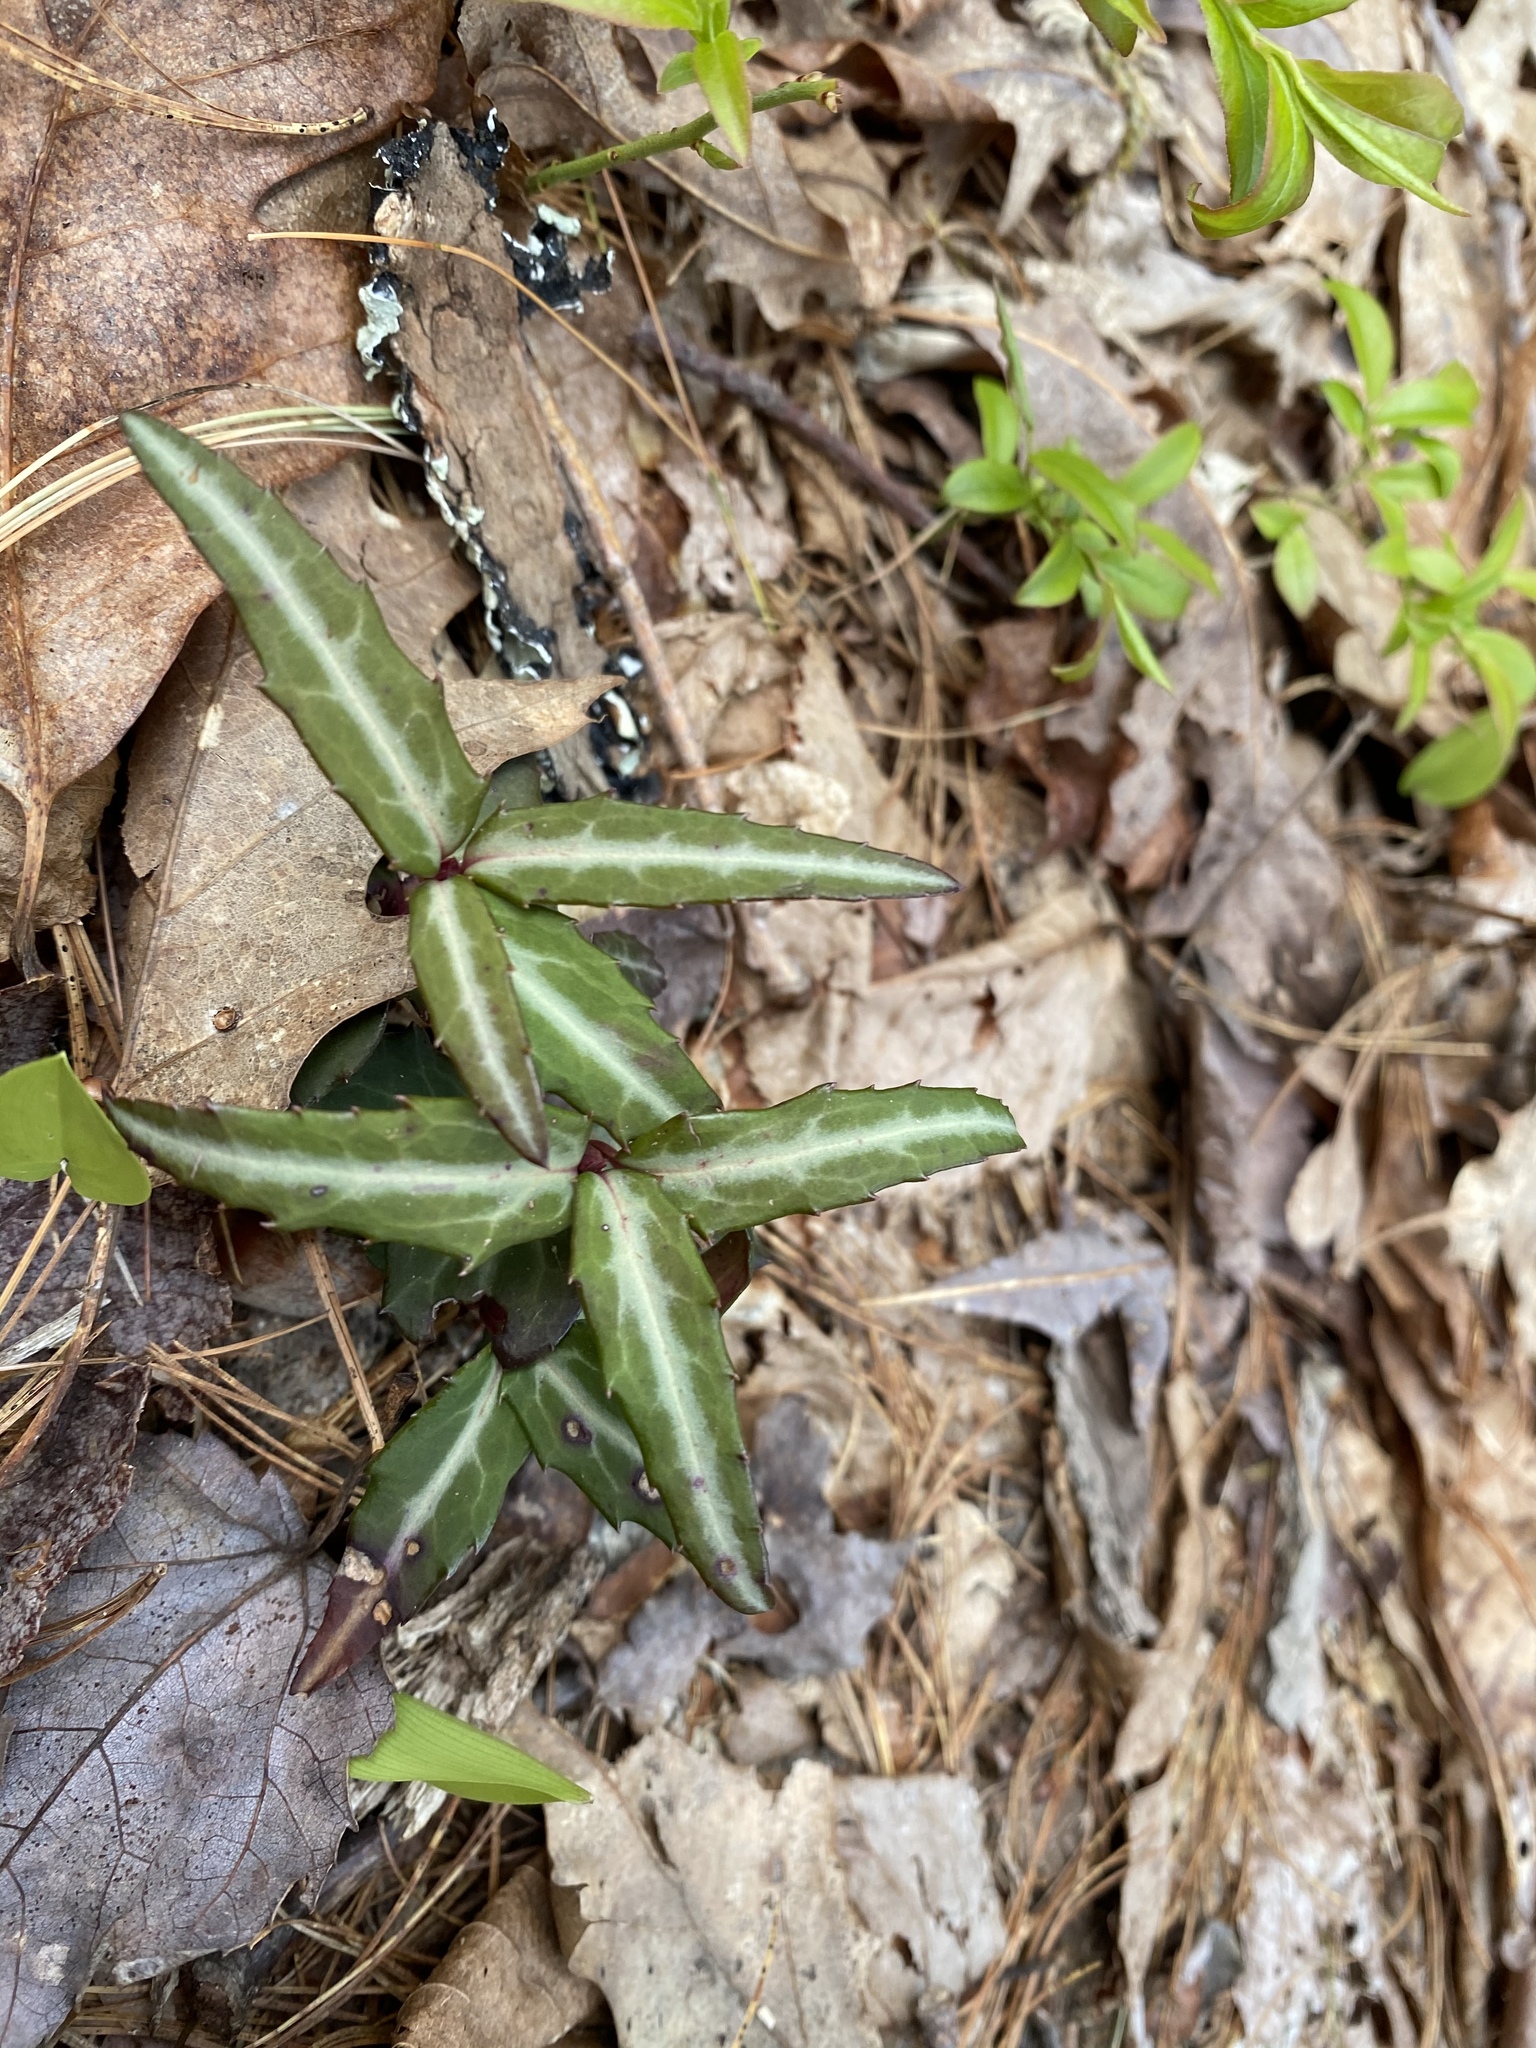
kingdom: Plantae
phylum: Tracheophyta
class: Magnoliopsida
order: Ericales
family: Ericaceae
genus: Chimaphila
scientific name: Chimaphila maculata
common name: Spotted pipsissewa
